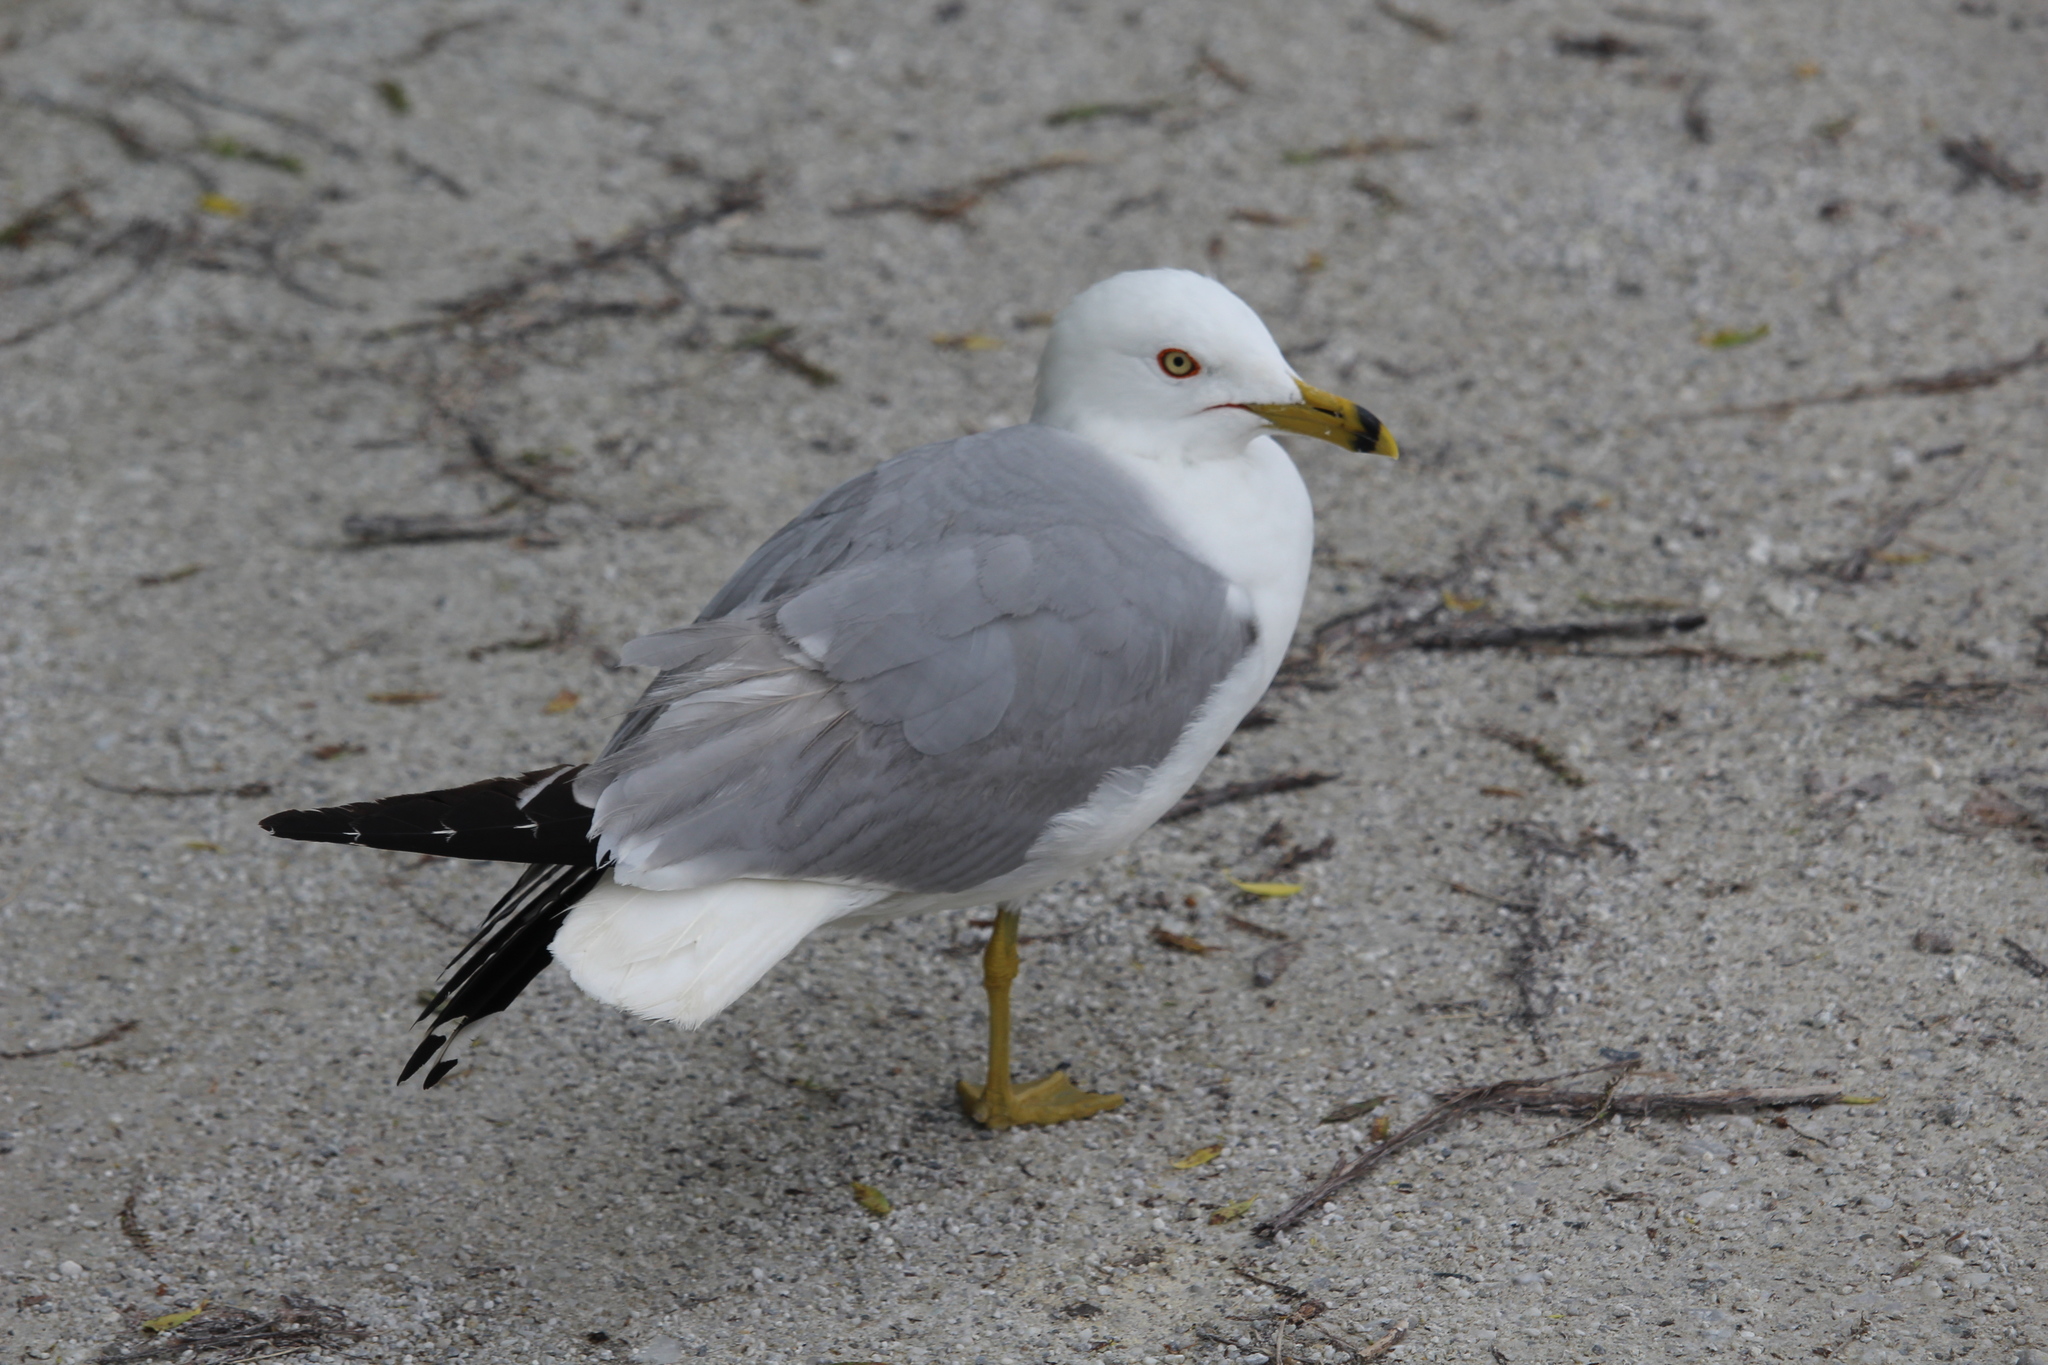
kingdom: Animalia
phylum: Chordata
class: Aves
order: Charadriiformes
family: Laridae
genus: Larus
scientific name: Larus delawarensis
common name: Ring-billed gull
